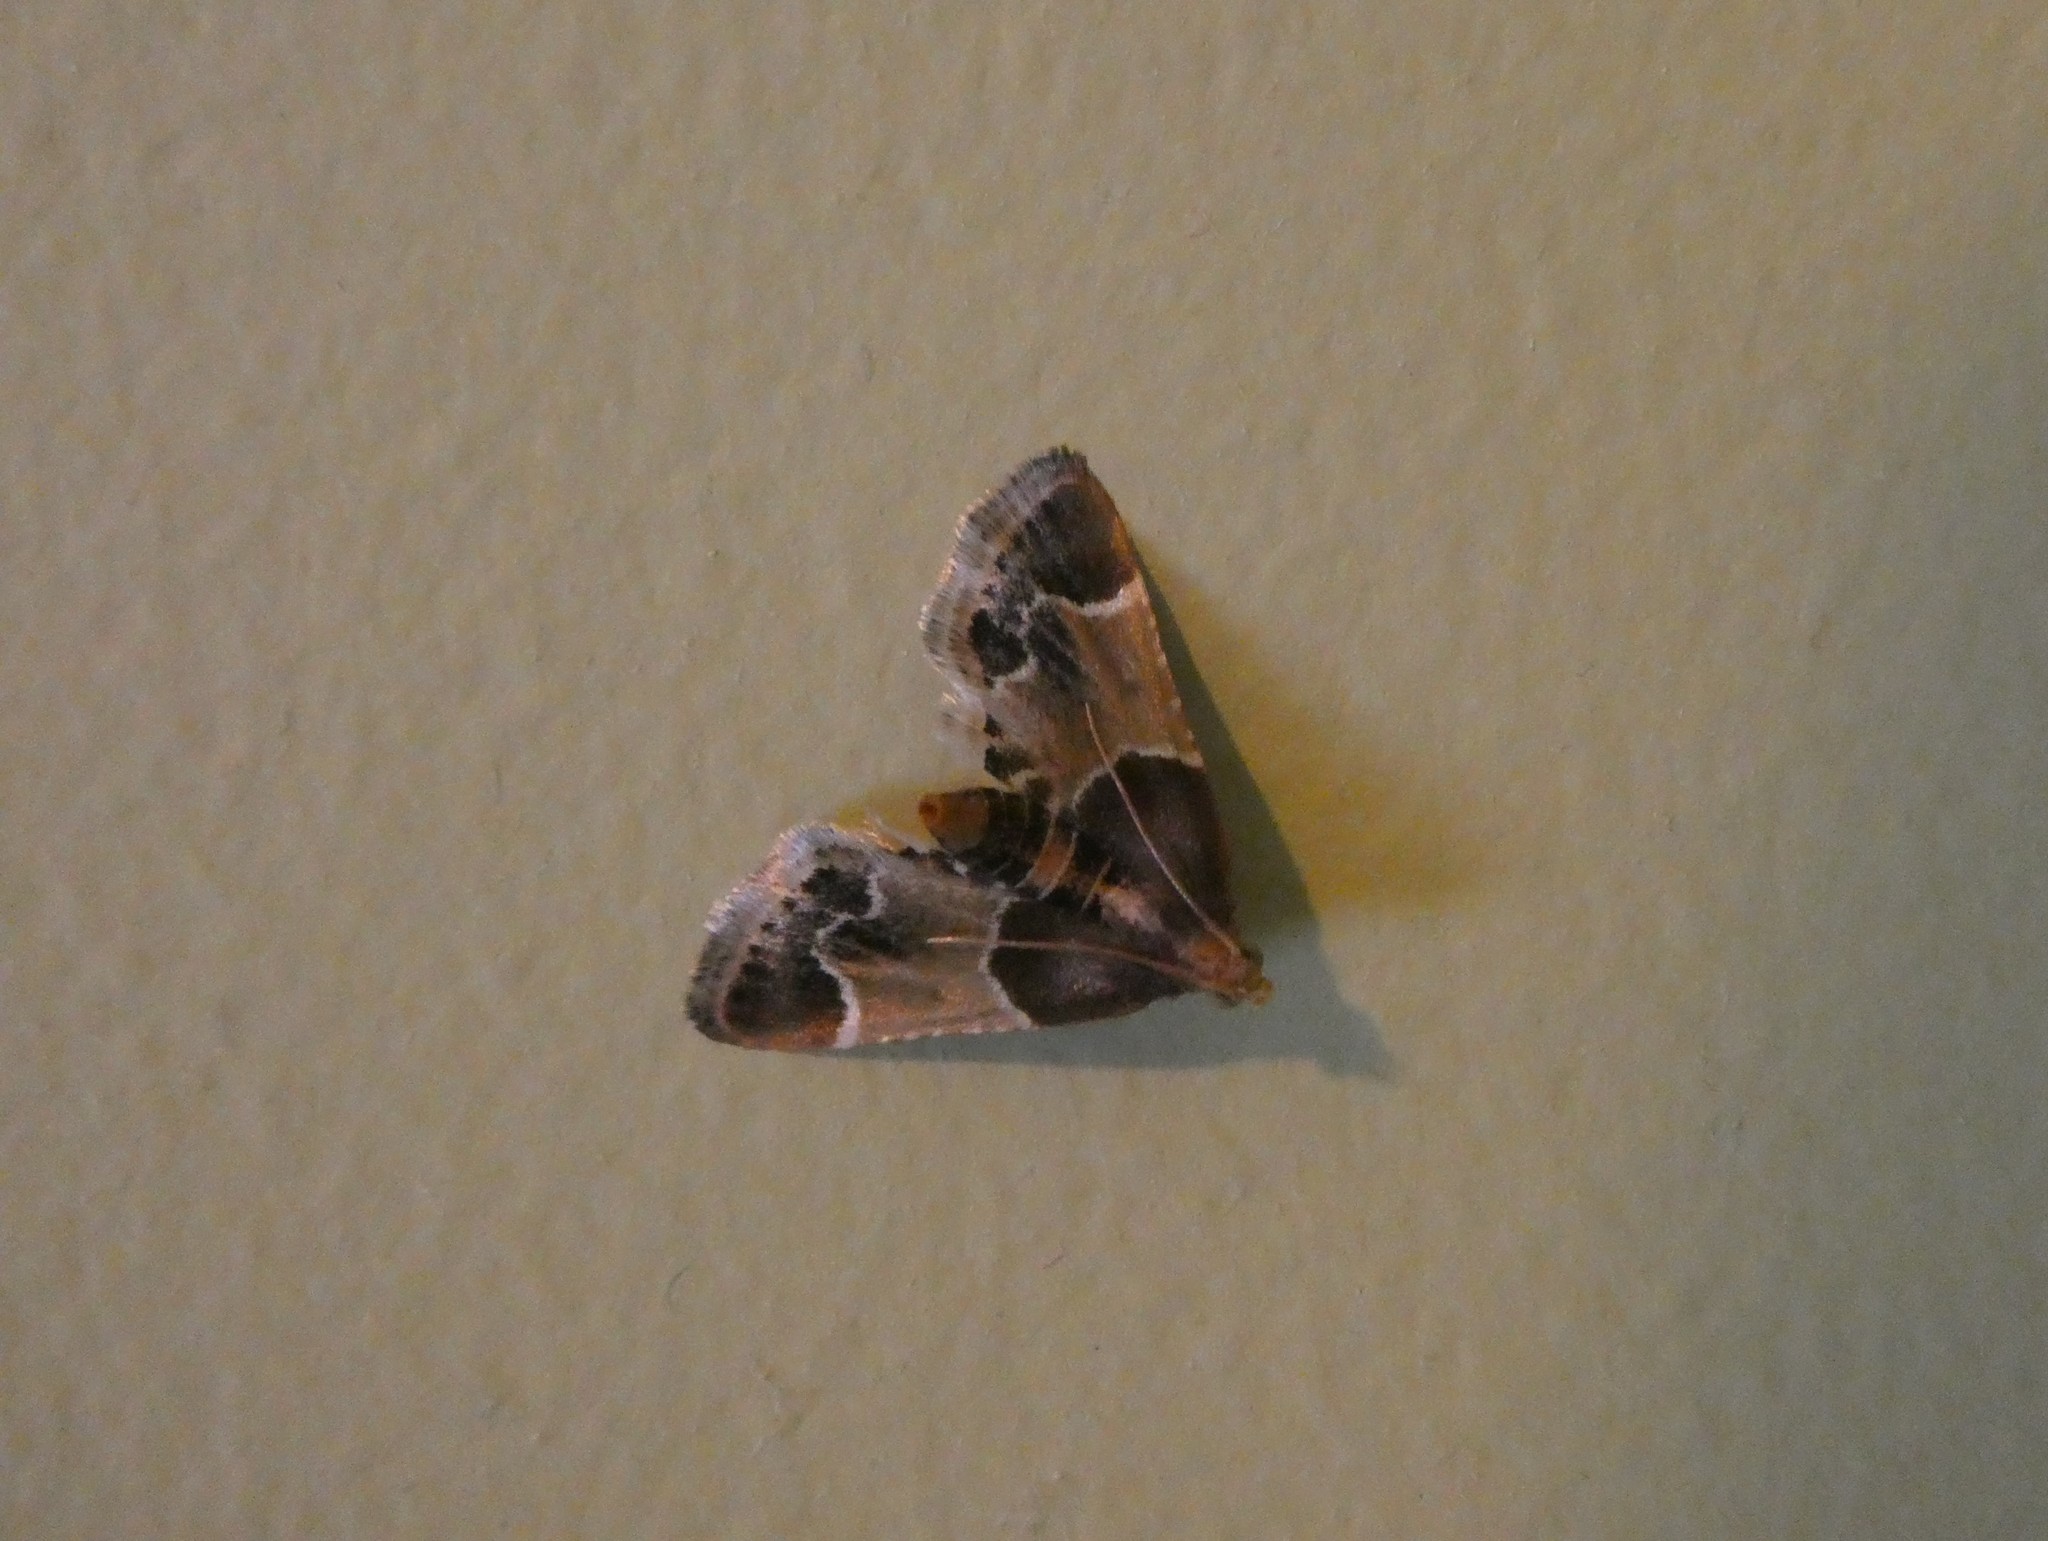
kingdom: Animalia
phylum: Arthropoda
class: Insecta
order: Lepidoptera
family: Pyralidae
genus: Pyralis
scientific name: Pyralis farinalis
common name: Meal moth
